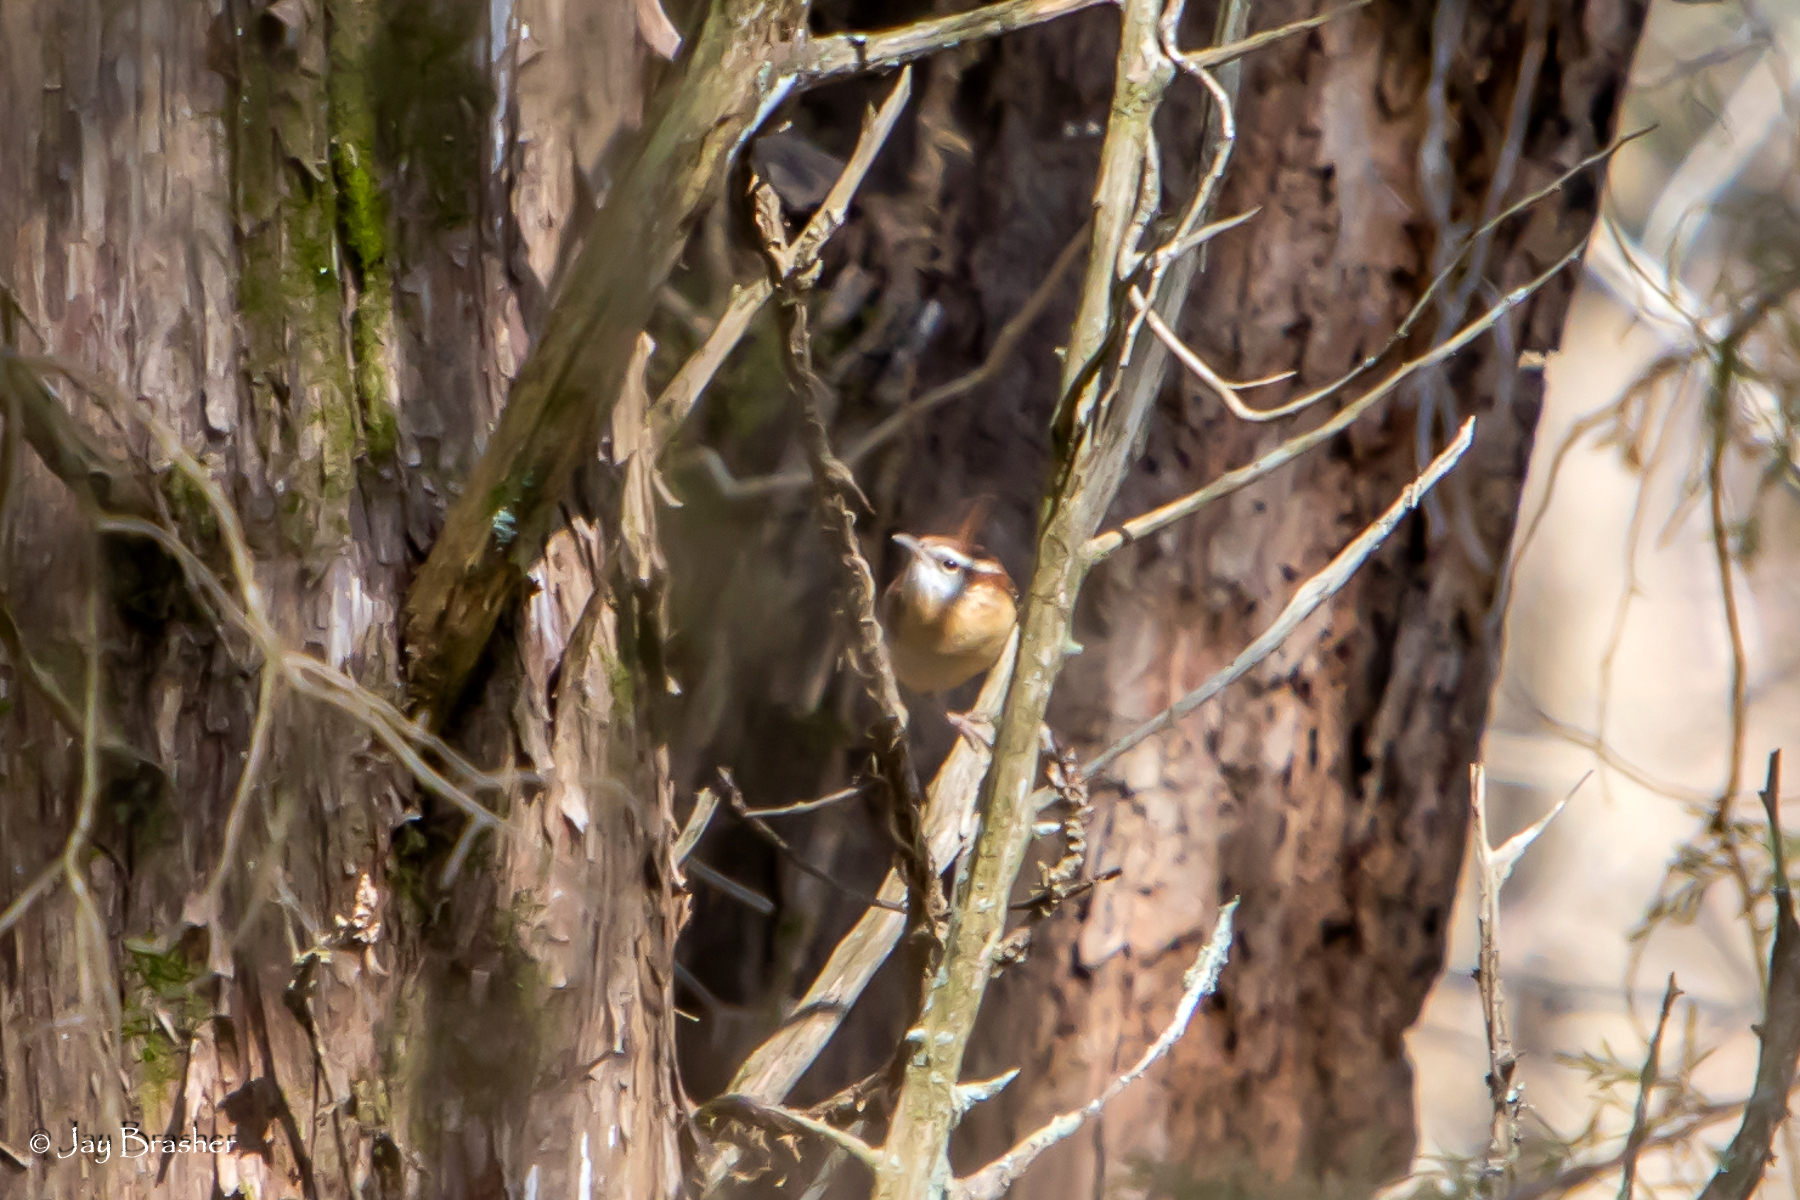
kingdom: Animalia
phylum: Chordata
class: Aves
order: Passeriformes
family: Troglodytidae
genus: Thryothorus
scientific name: Thryothorus ludovicianus
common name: Carolina wren
